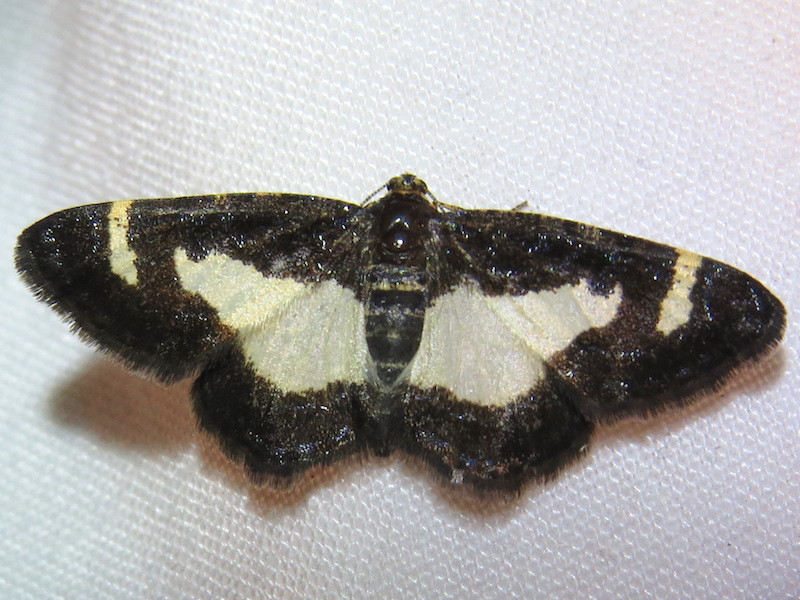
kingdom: Animalia
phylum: Arthropoda
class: Insecta
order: Lepidoptera
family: Geometridae
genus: Heliomata
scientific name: Heliomata cycladata
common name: Common spring moth
